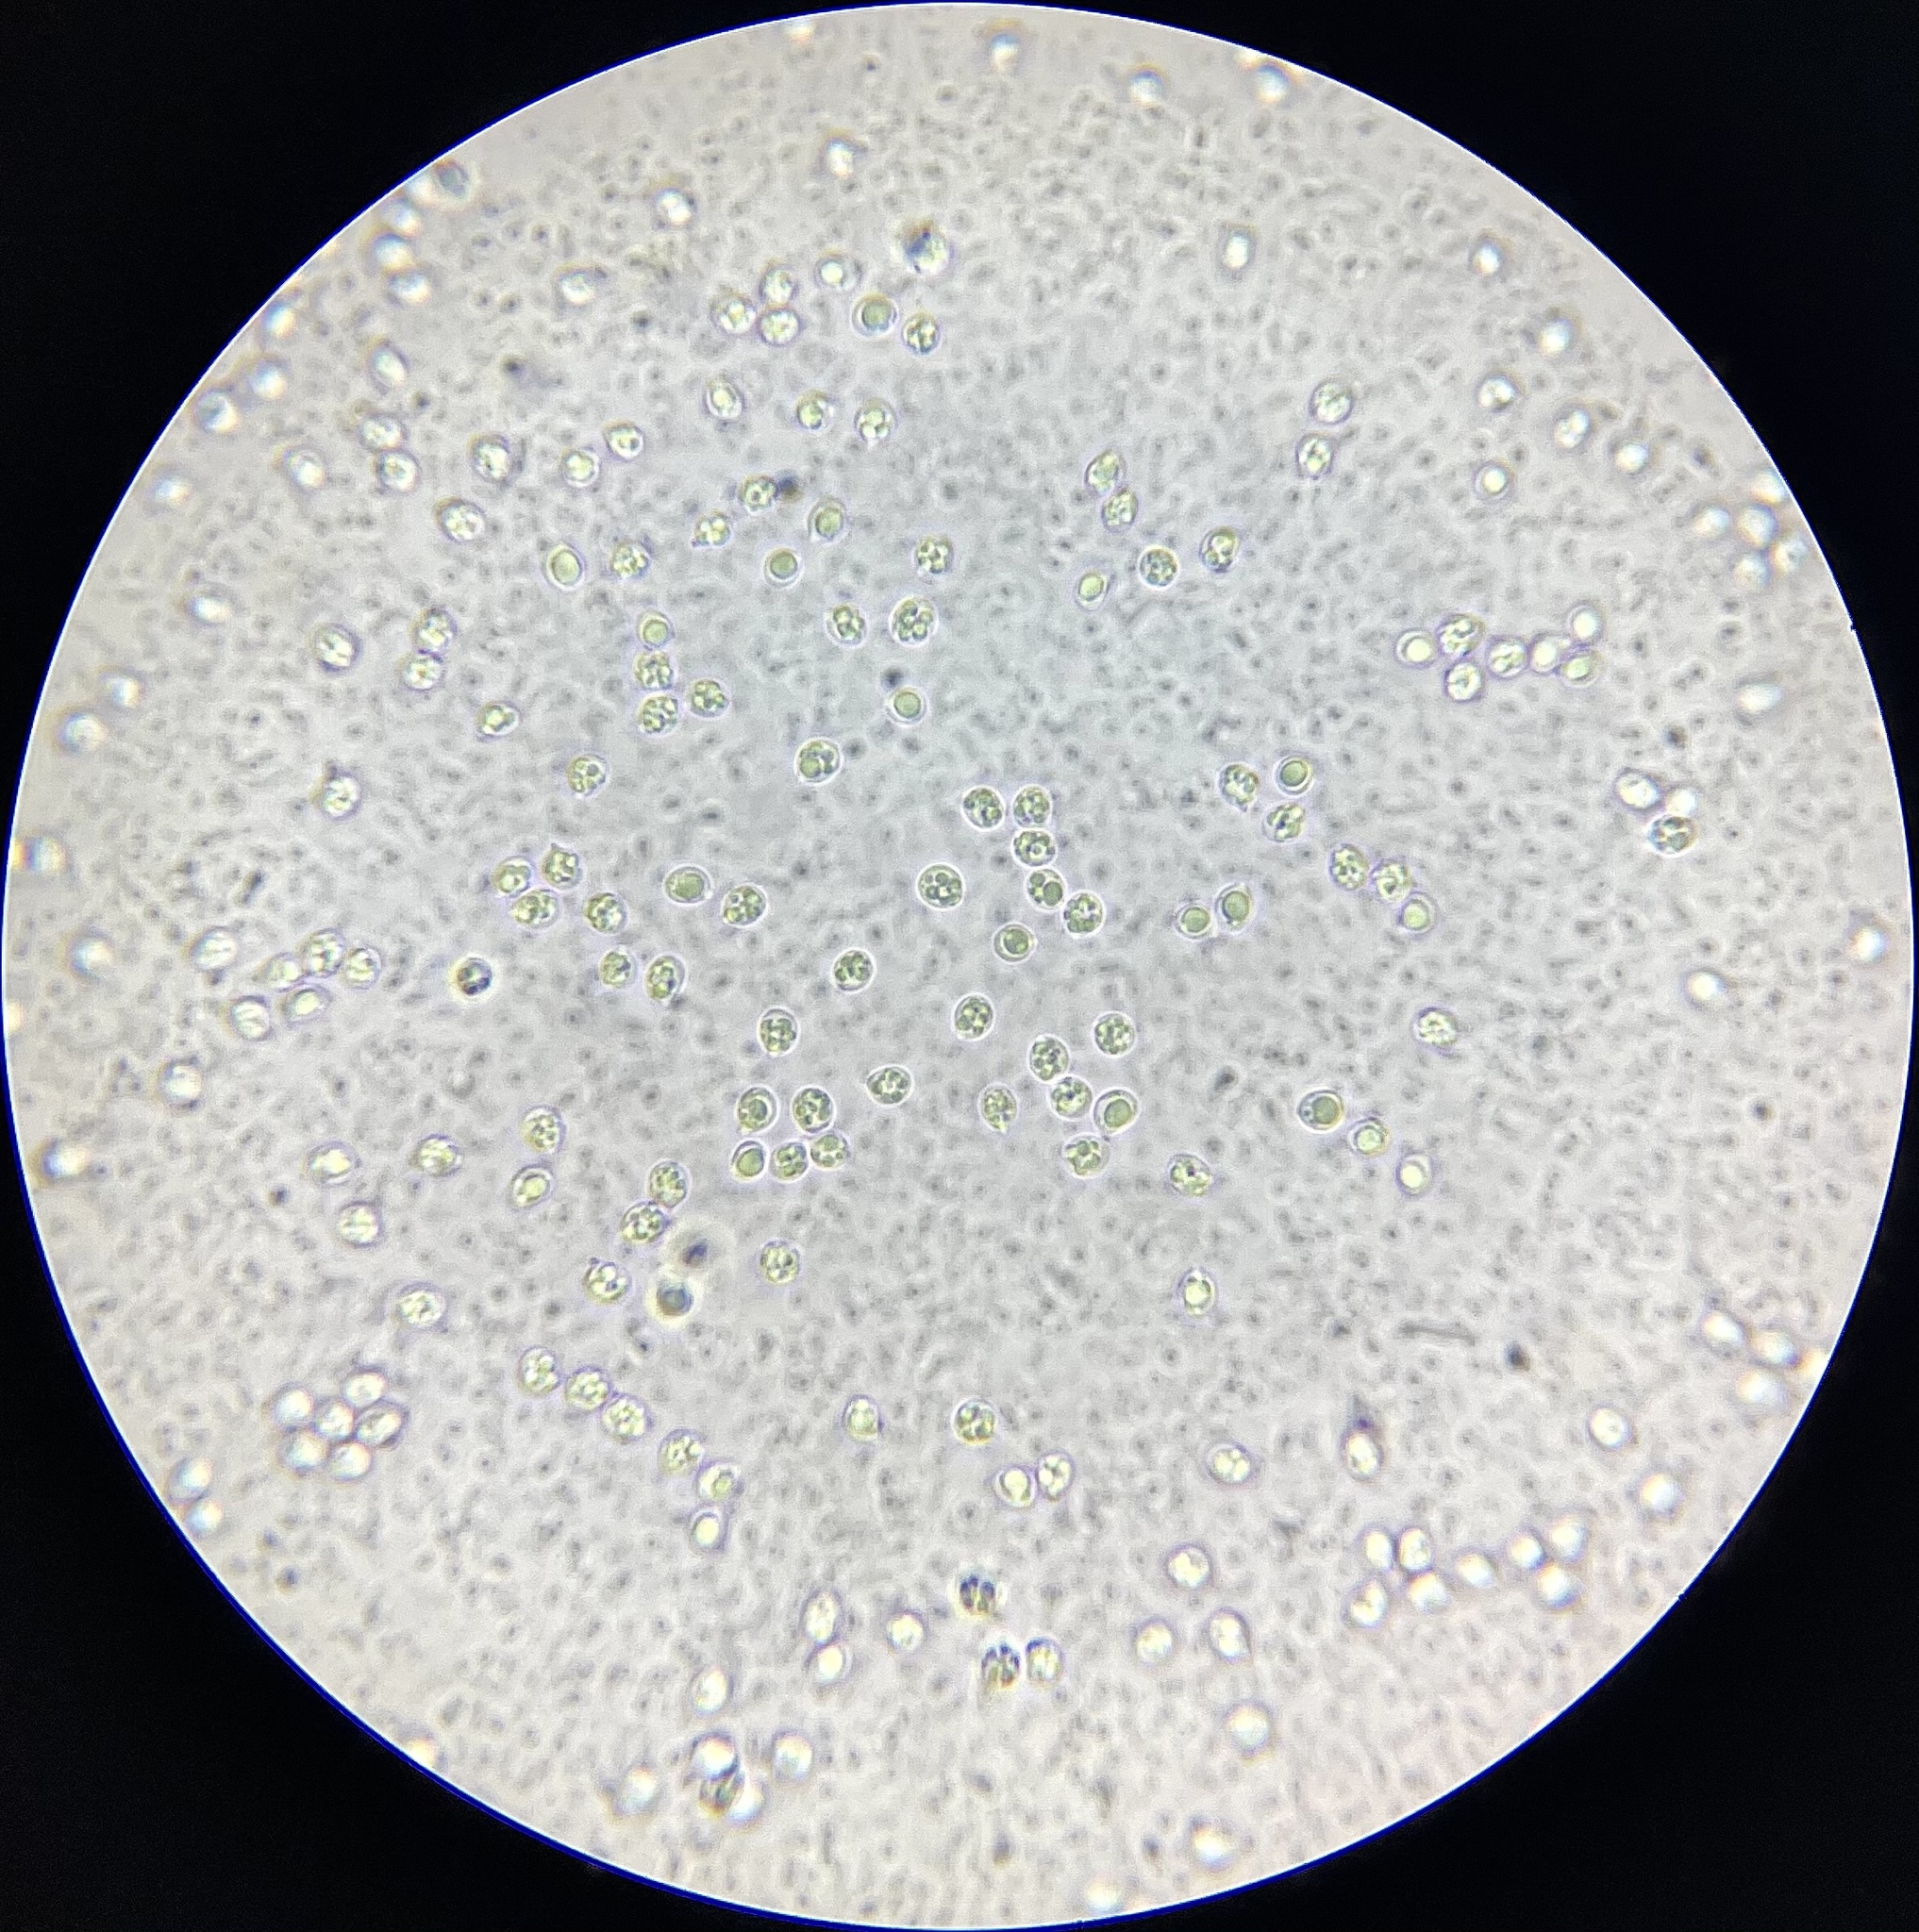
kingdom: Fungi
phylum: Basidiomycota
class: Agaricomycetes
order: Agaricales
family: Tricholomataceae
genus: Tricholoma
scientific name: Tricholoma apium
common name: Scented knight
